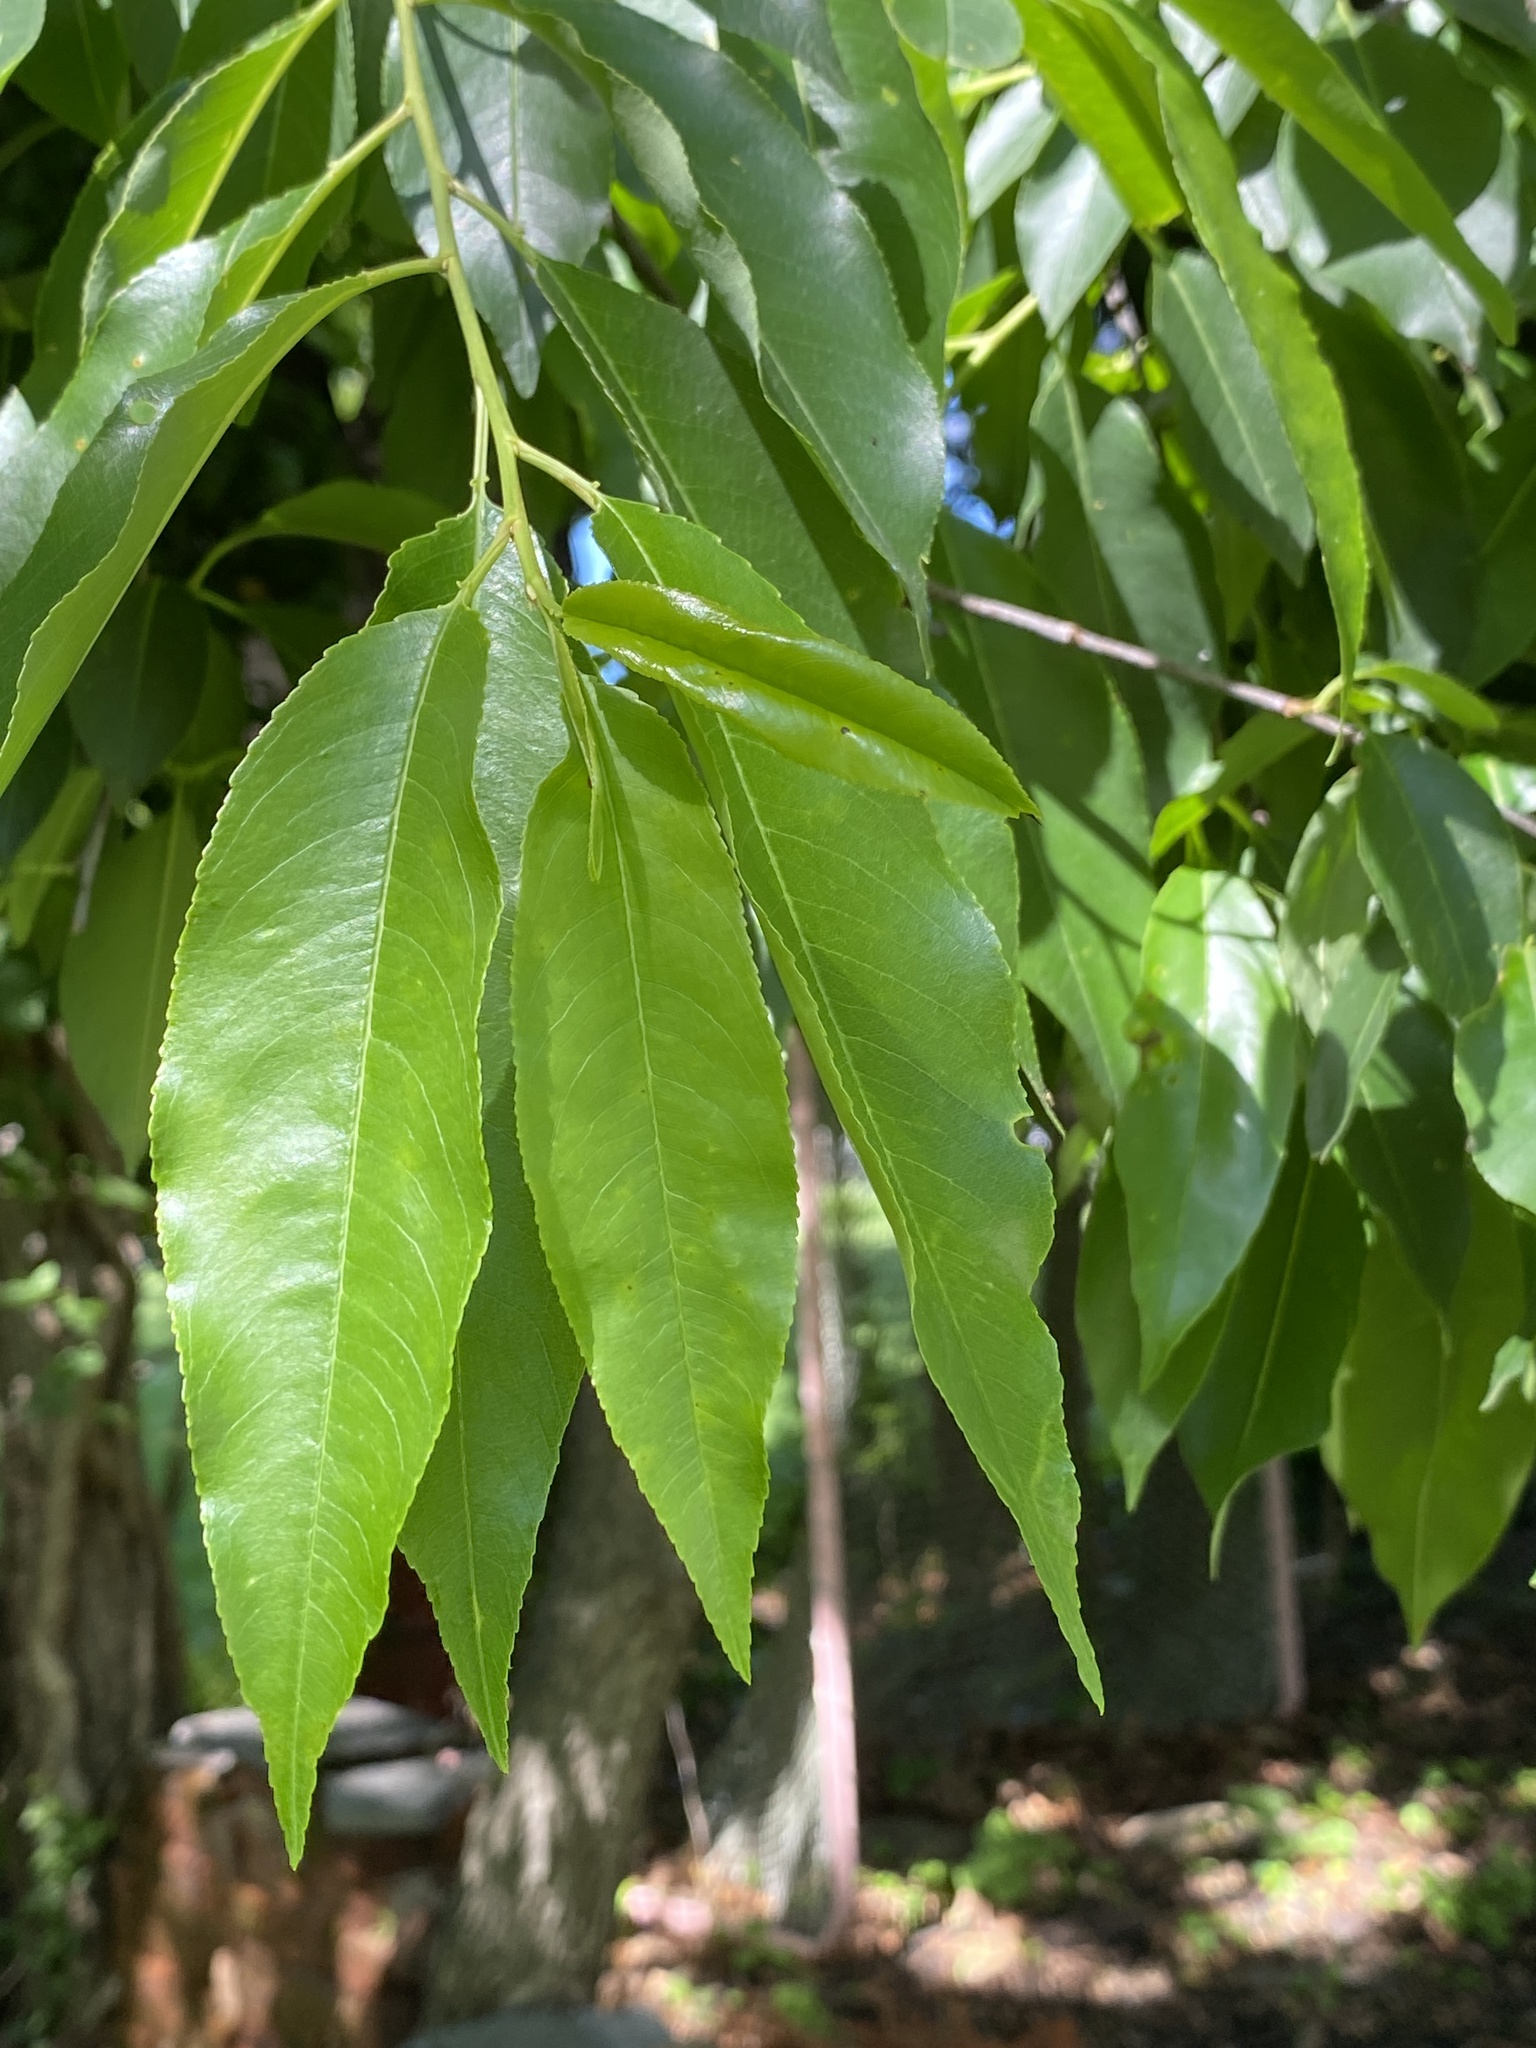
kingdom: Plantae
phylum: Tracheophyta
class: Magnoliopsida
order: Rosales
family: Rosaceae
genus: Prunus
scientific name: Prunus serotina
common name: Black cherry
